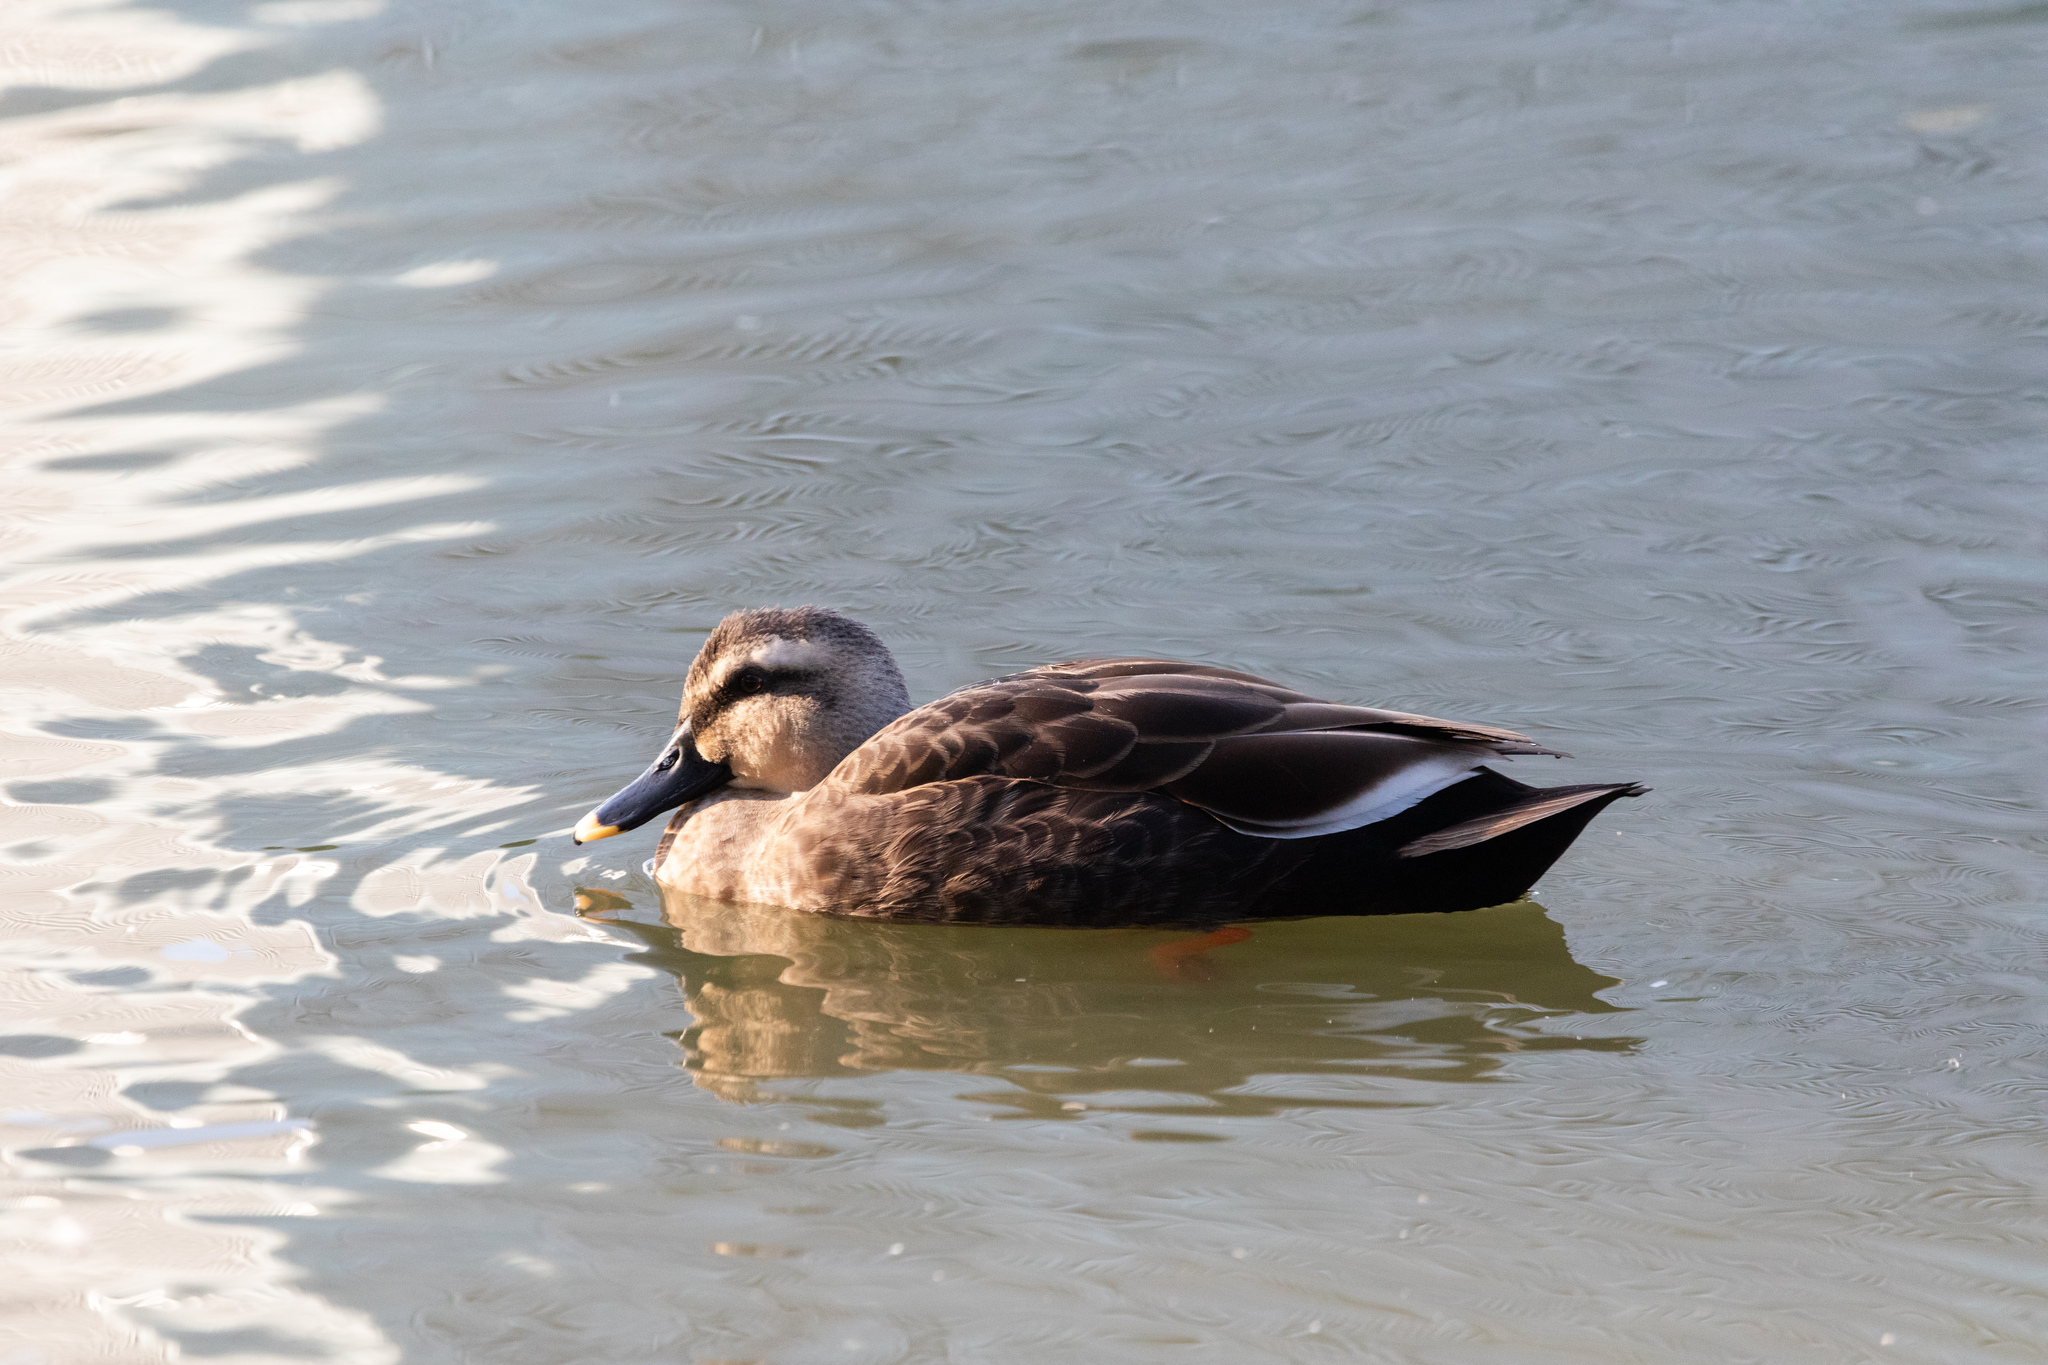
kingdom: Animalia
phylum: Chordata
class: Aves
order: Anseriformes
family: Anatidae
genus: Anas
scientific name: Anas zonorhyncha
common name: Eastern spot-billed duck
